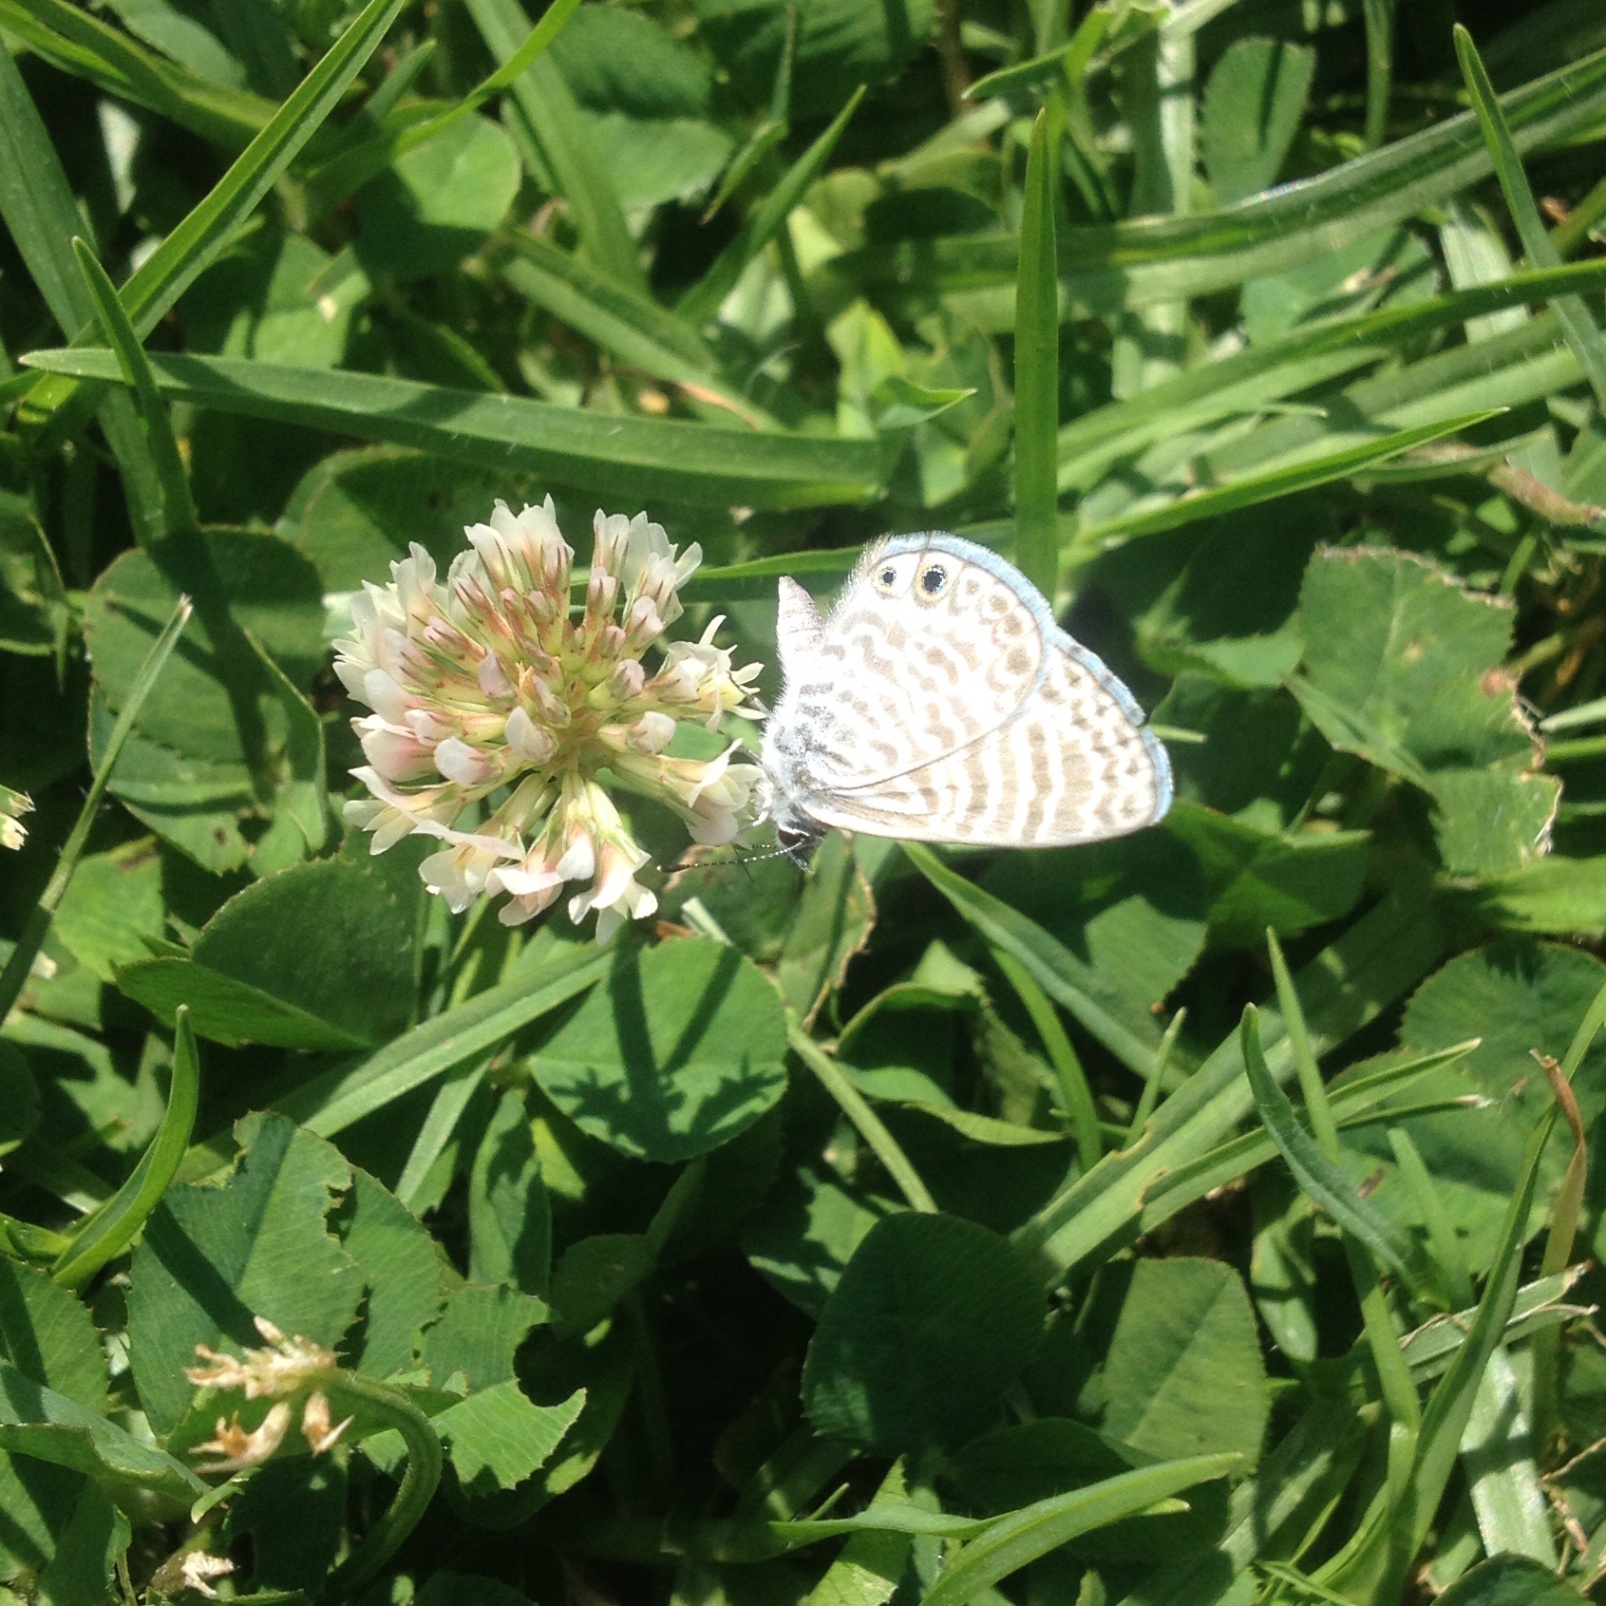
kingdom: Animalia
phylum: Arthropoda
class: Insecta
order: Lepidoptera
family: Lycaenidae
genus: Leptotes
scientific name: Leptotes marina
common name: Marine blue
